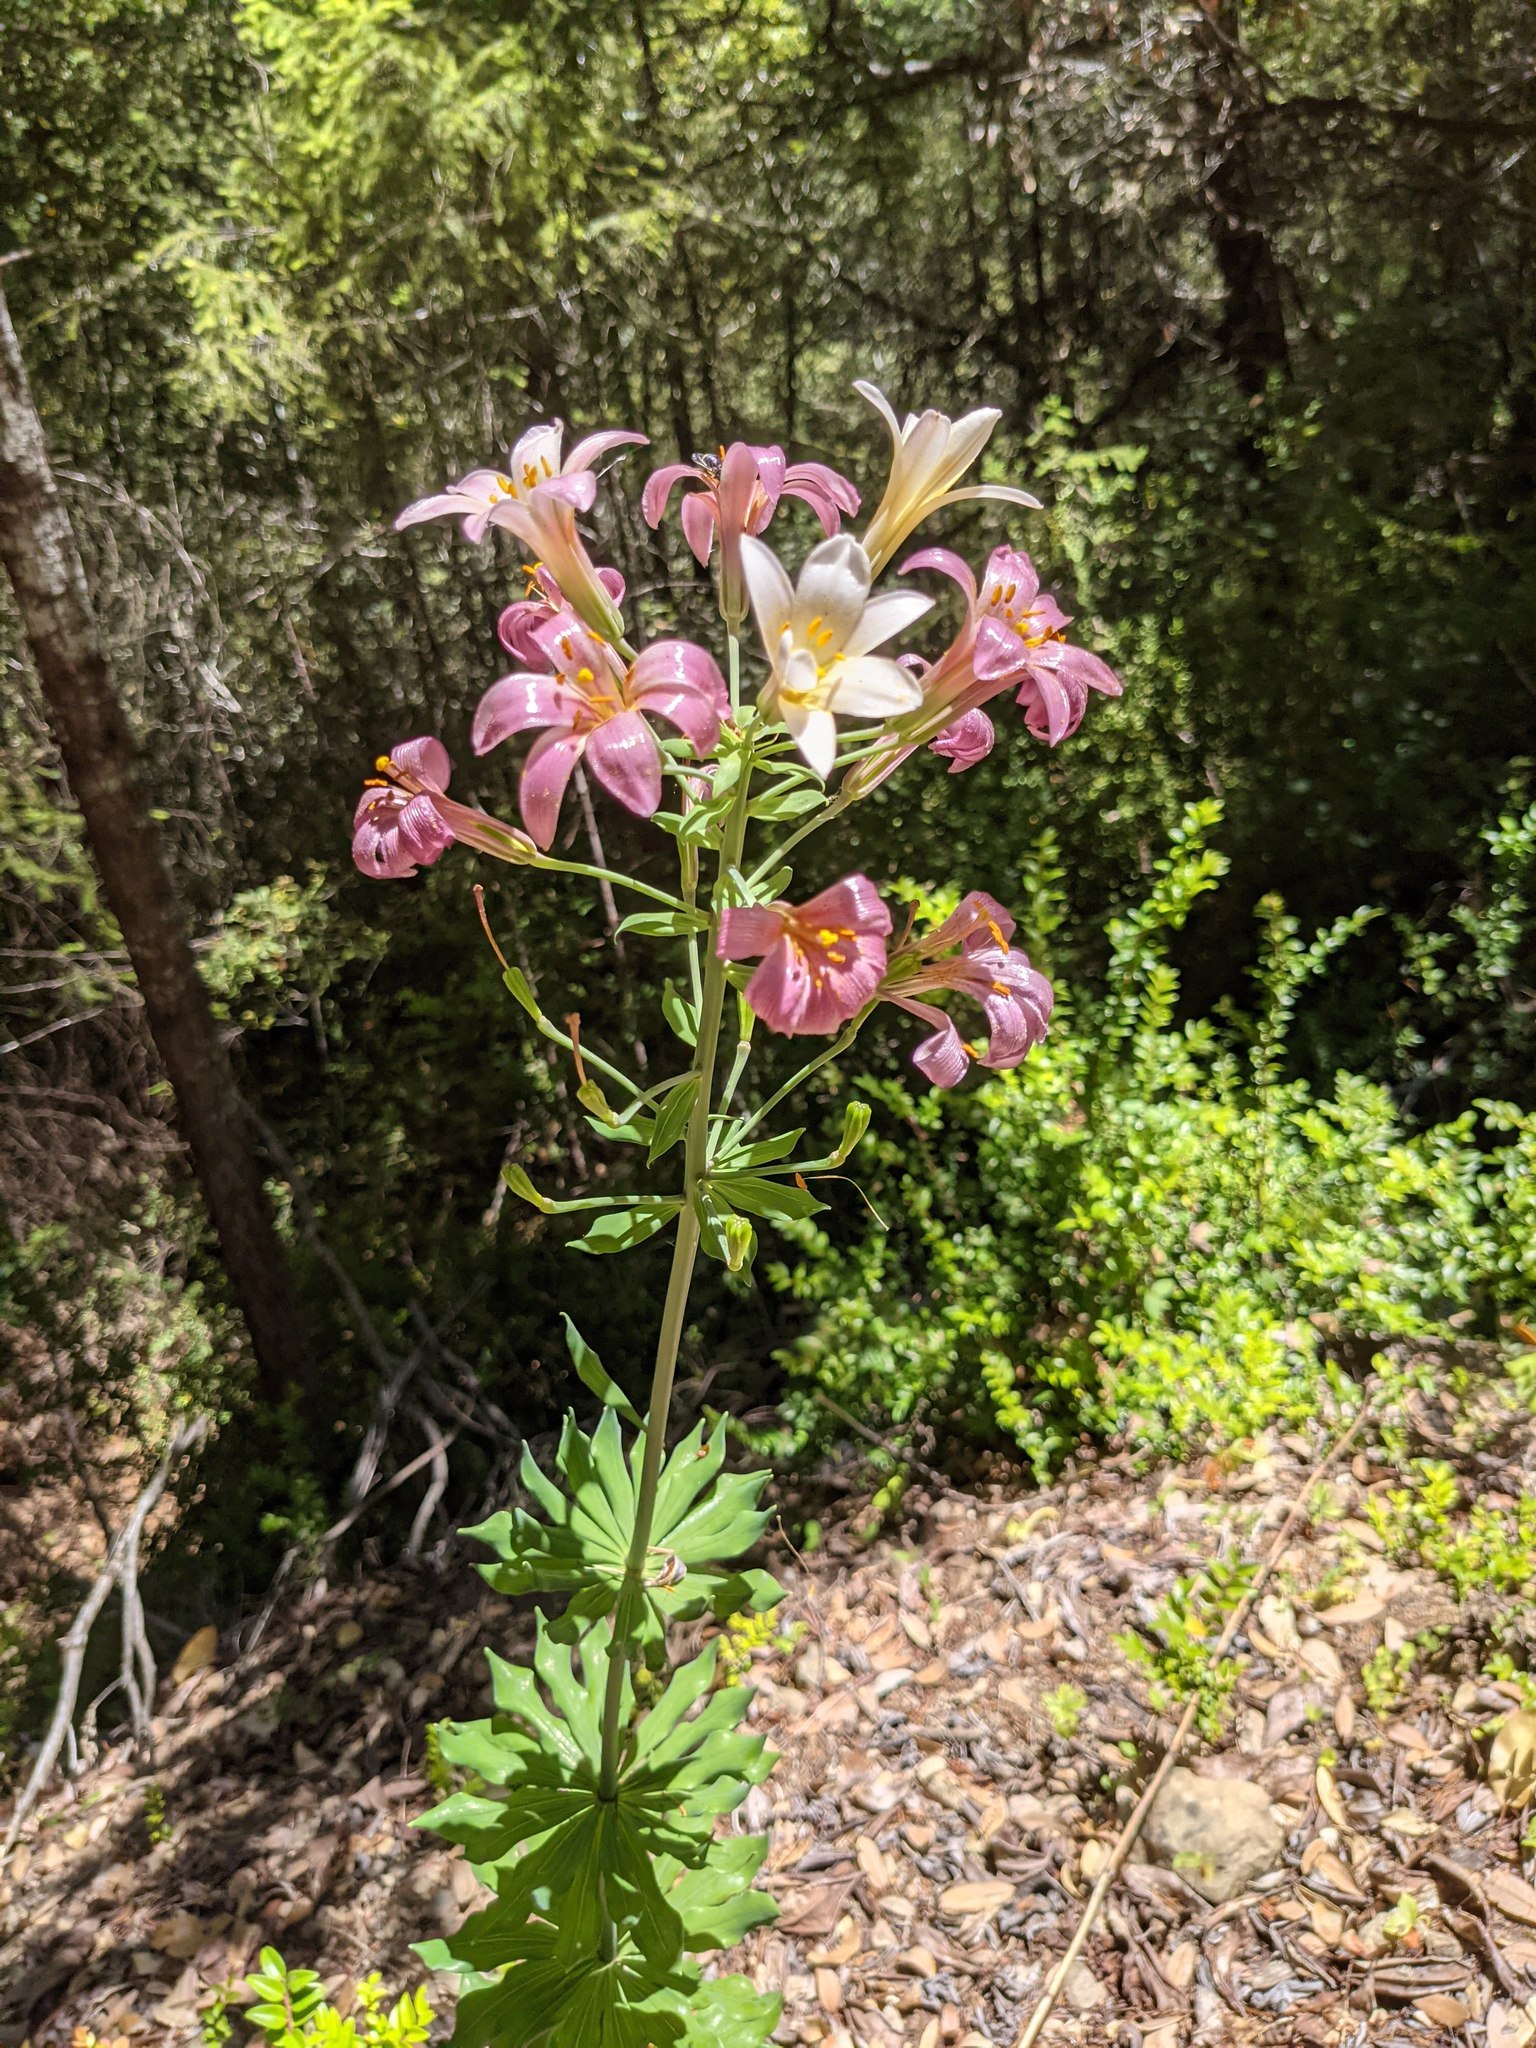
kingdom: Plantae
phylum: Tracheophyta
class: Liliopsida
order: Liliales
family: Liliaceae
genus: Lilium
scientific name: Lilium rubescens
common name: Chamise lily
